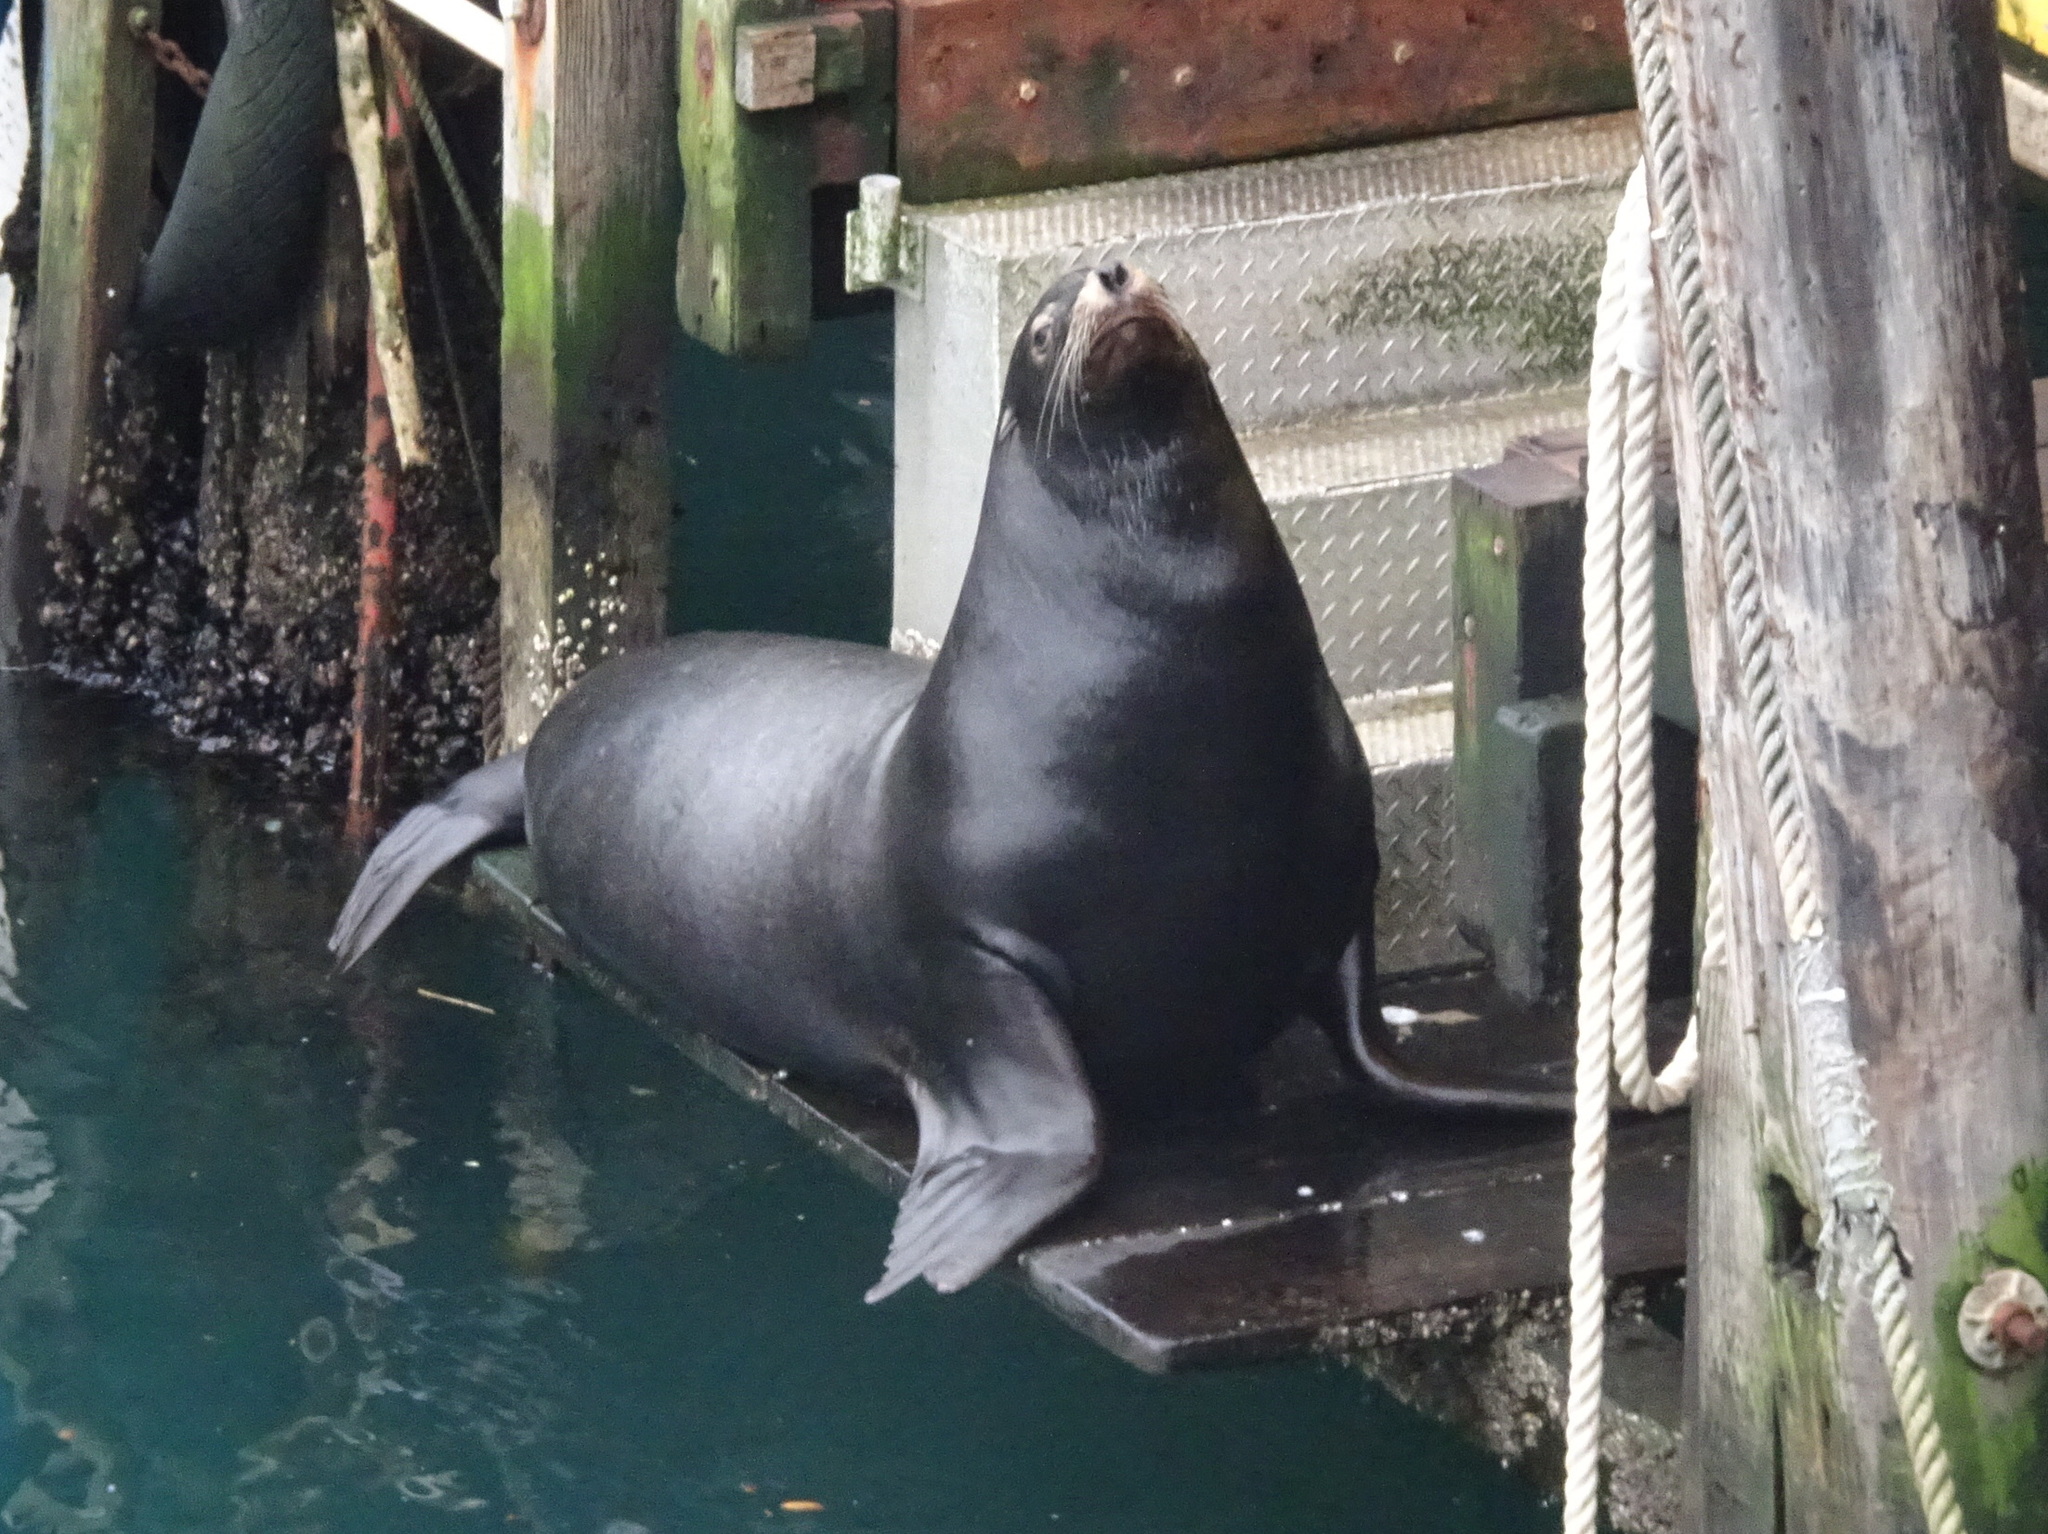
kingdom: Animalia
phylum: Chordata
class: Mammalia
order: Carnivora
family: Otariidae
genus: Zalophus
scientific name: Zalophus californianus
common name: California sea lion
